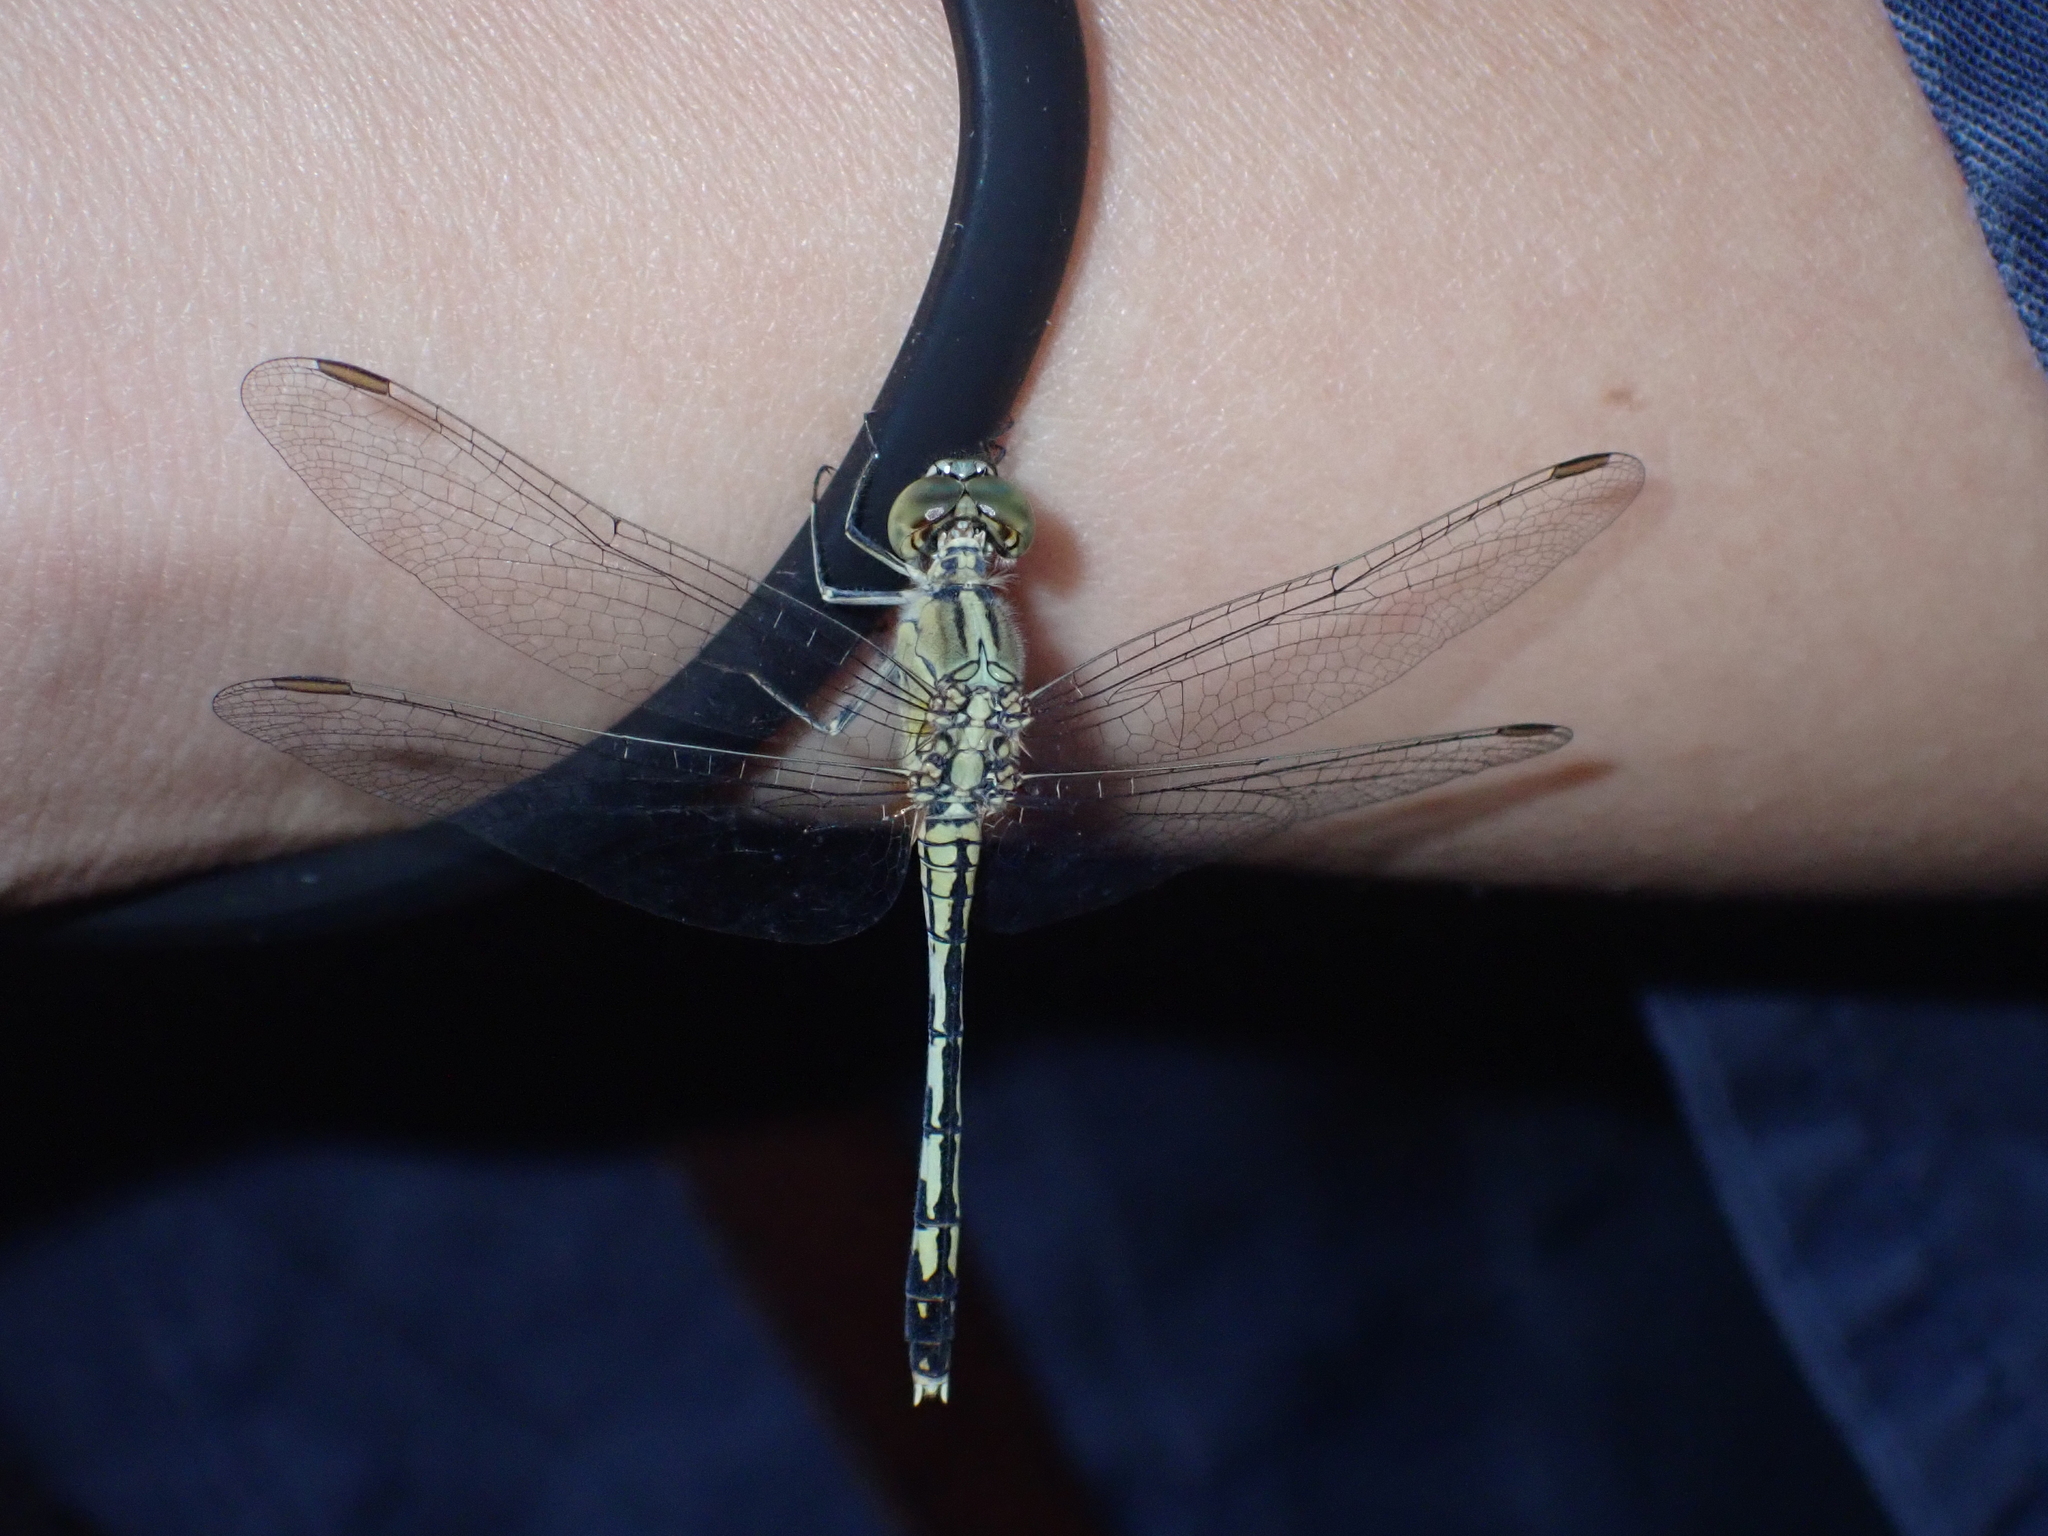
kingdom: Animalia
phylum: Arthropoda
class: Insecta
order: Odonata
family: Libellulidae
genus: Diplacodes
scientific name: Diplacodes trivialis
